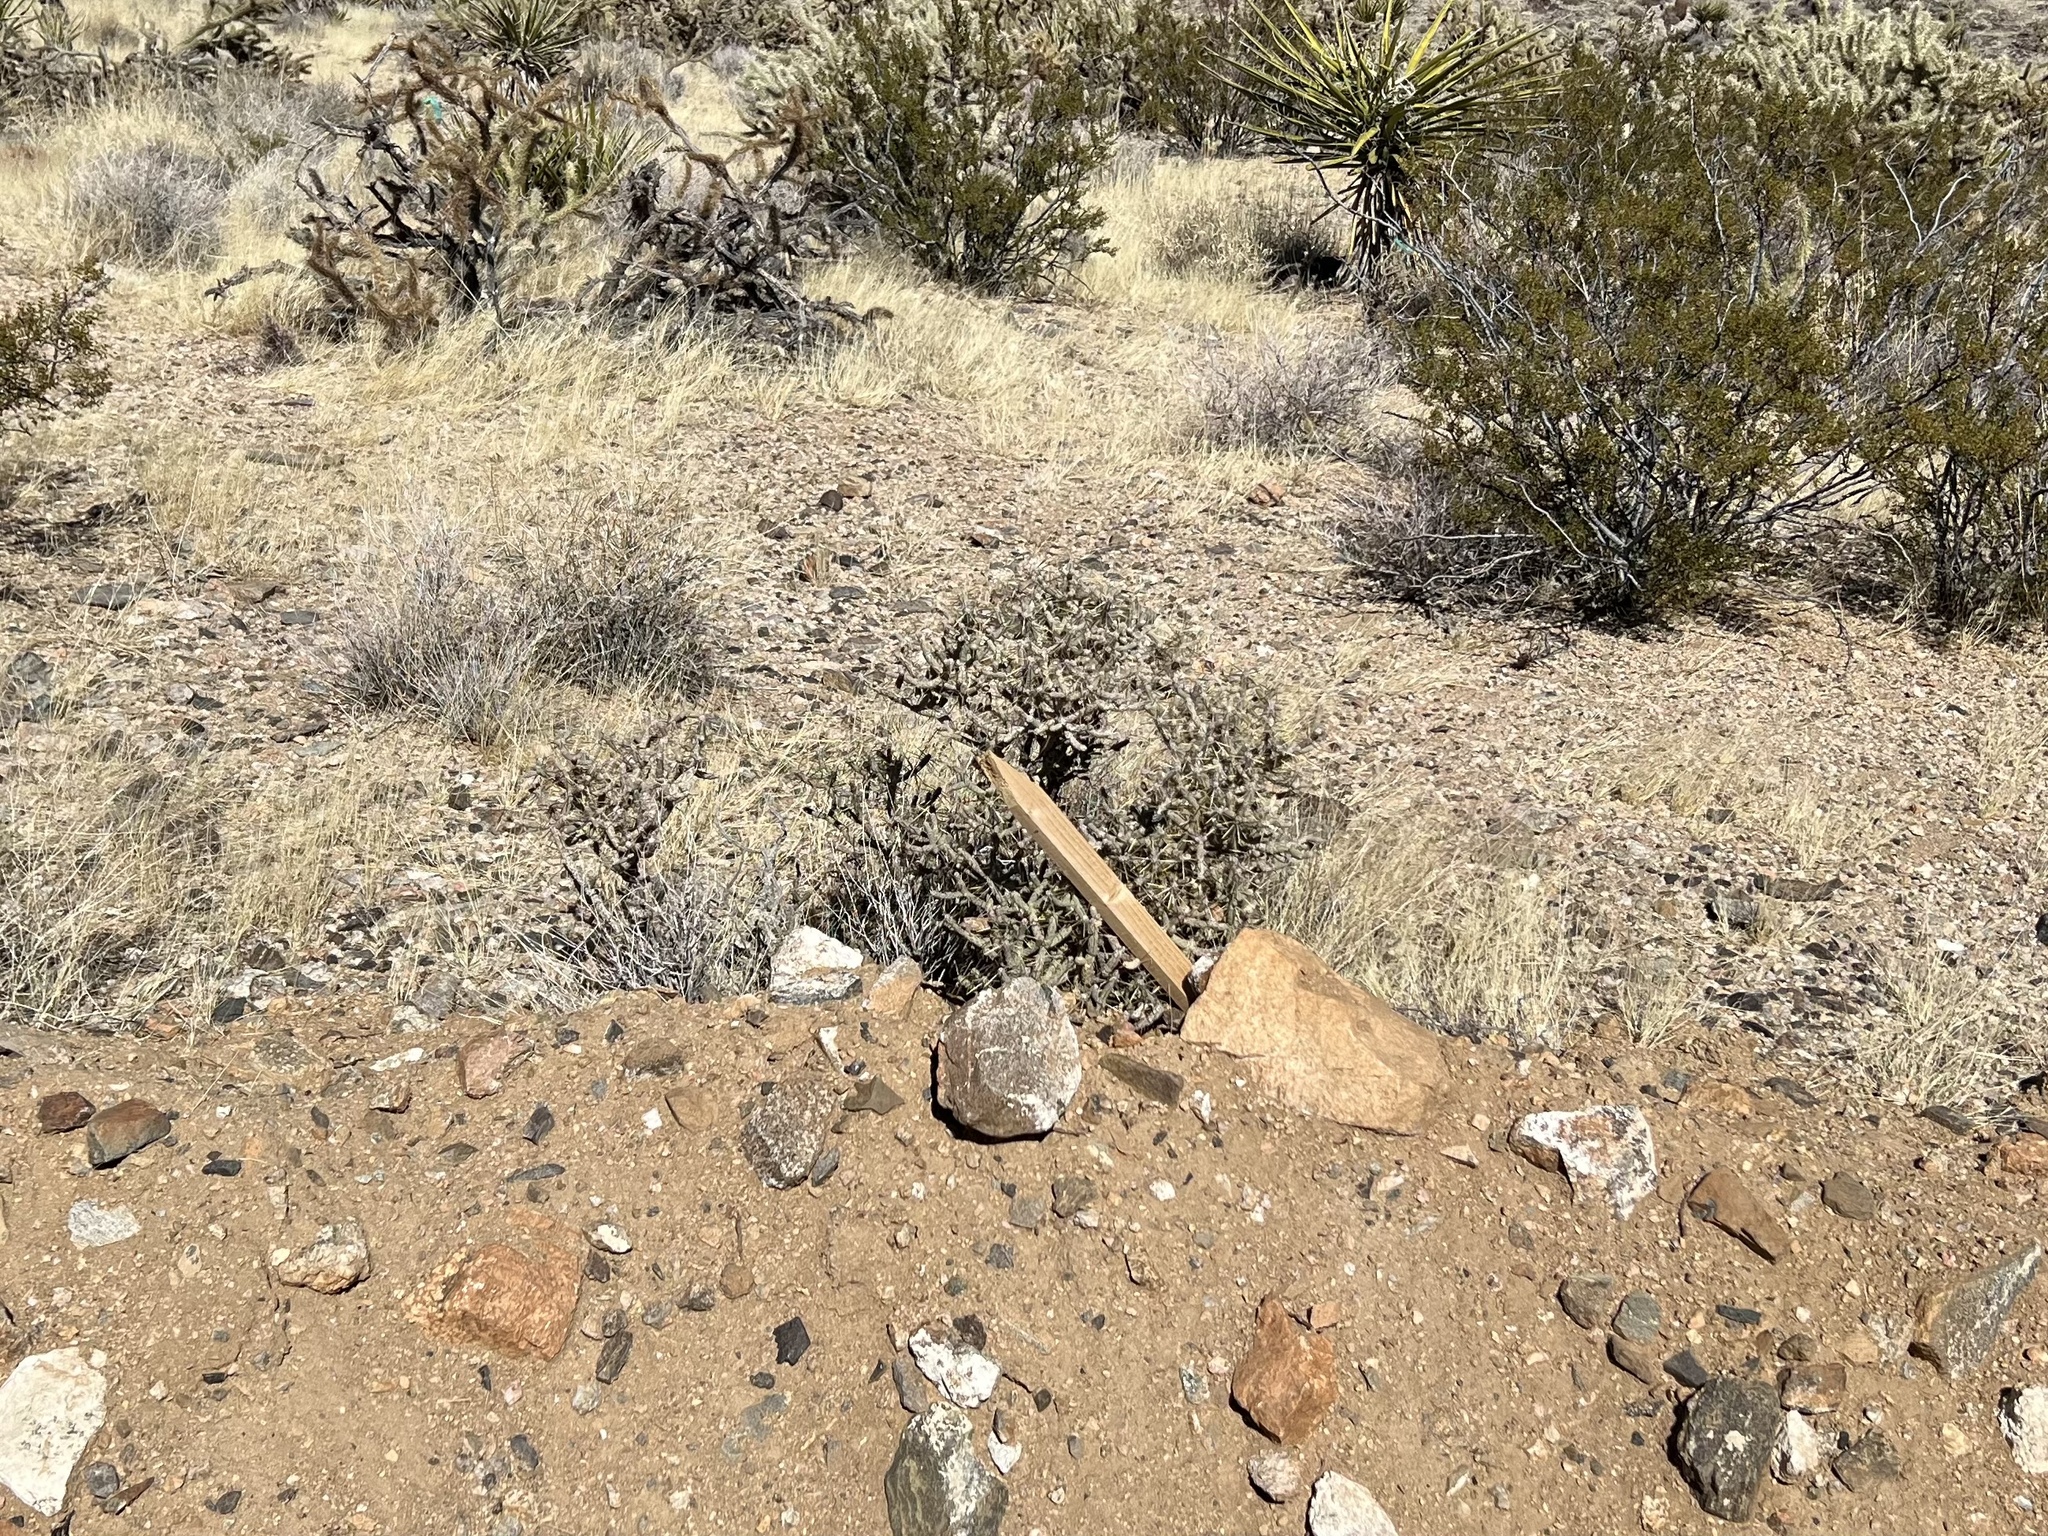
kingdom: Plantae
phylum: Tracheophyta
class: Magnoliopsida
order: Caryophyllales
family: Cactaceae
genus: Cylindropuntia
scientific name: Cylindropuntia ramosissima
